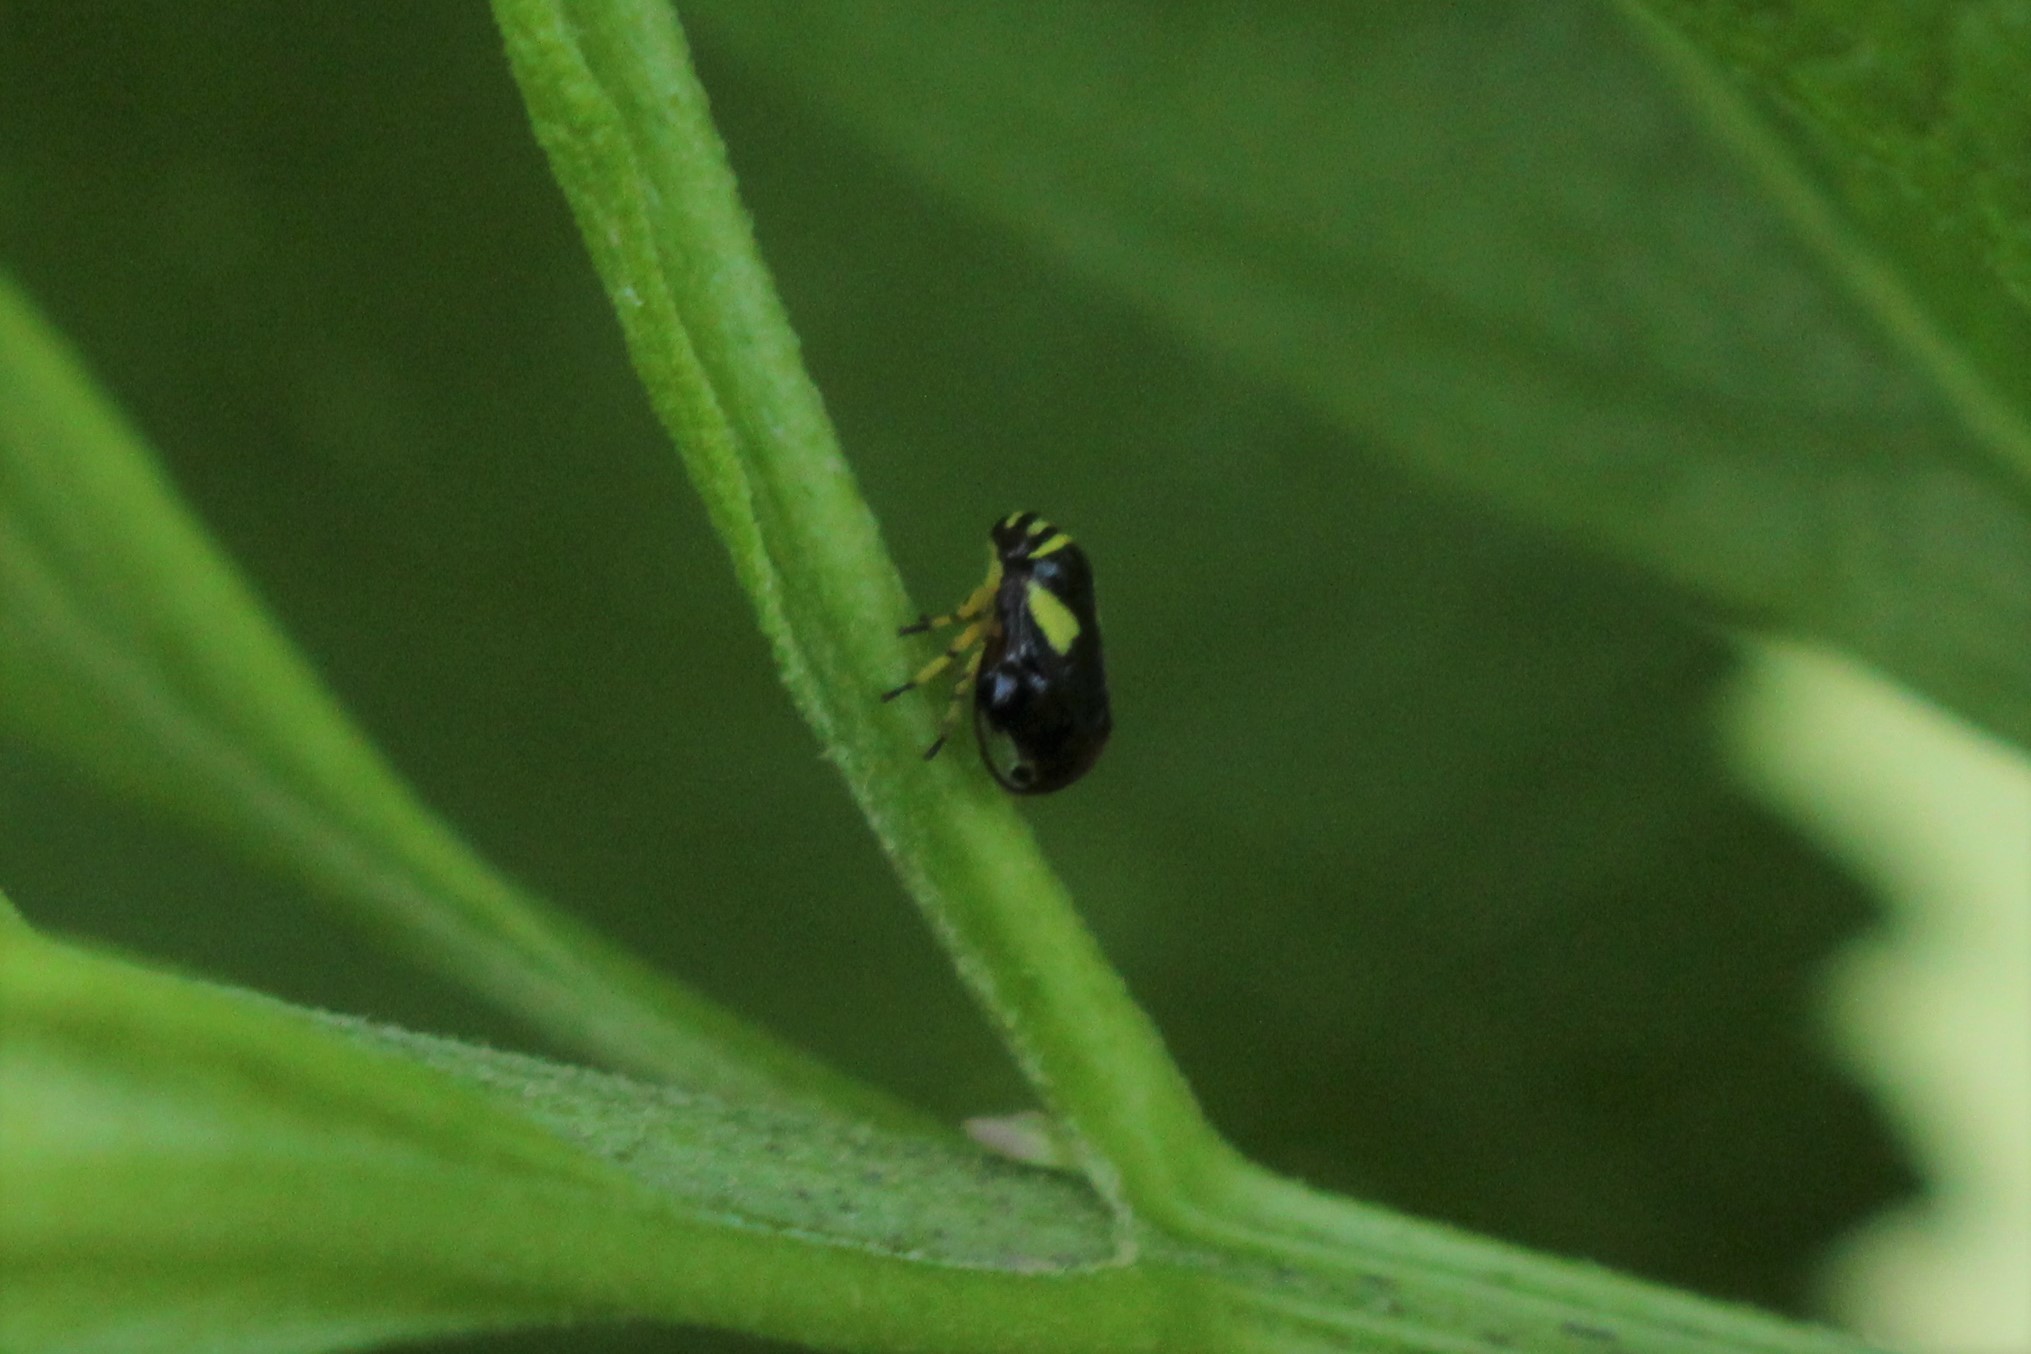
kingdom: Animalia
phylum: Arthropoda
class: Insecta
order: Hemiptera
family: Clastopteridae
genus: Clastoptera
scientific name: Clastoptera proteus
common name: Dogwood spittlebug
